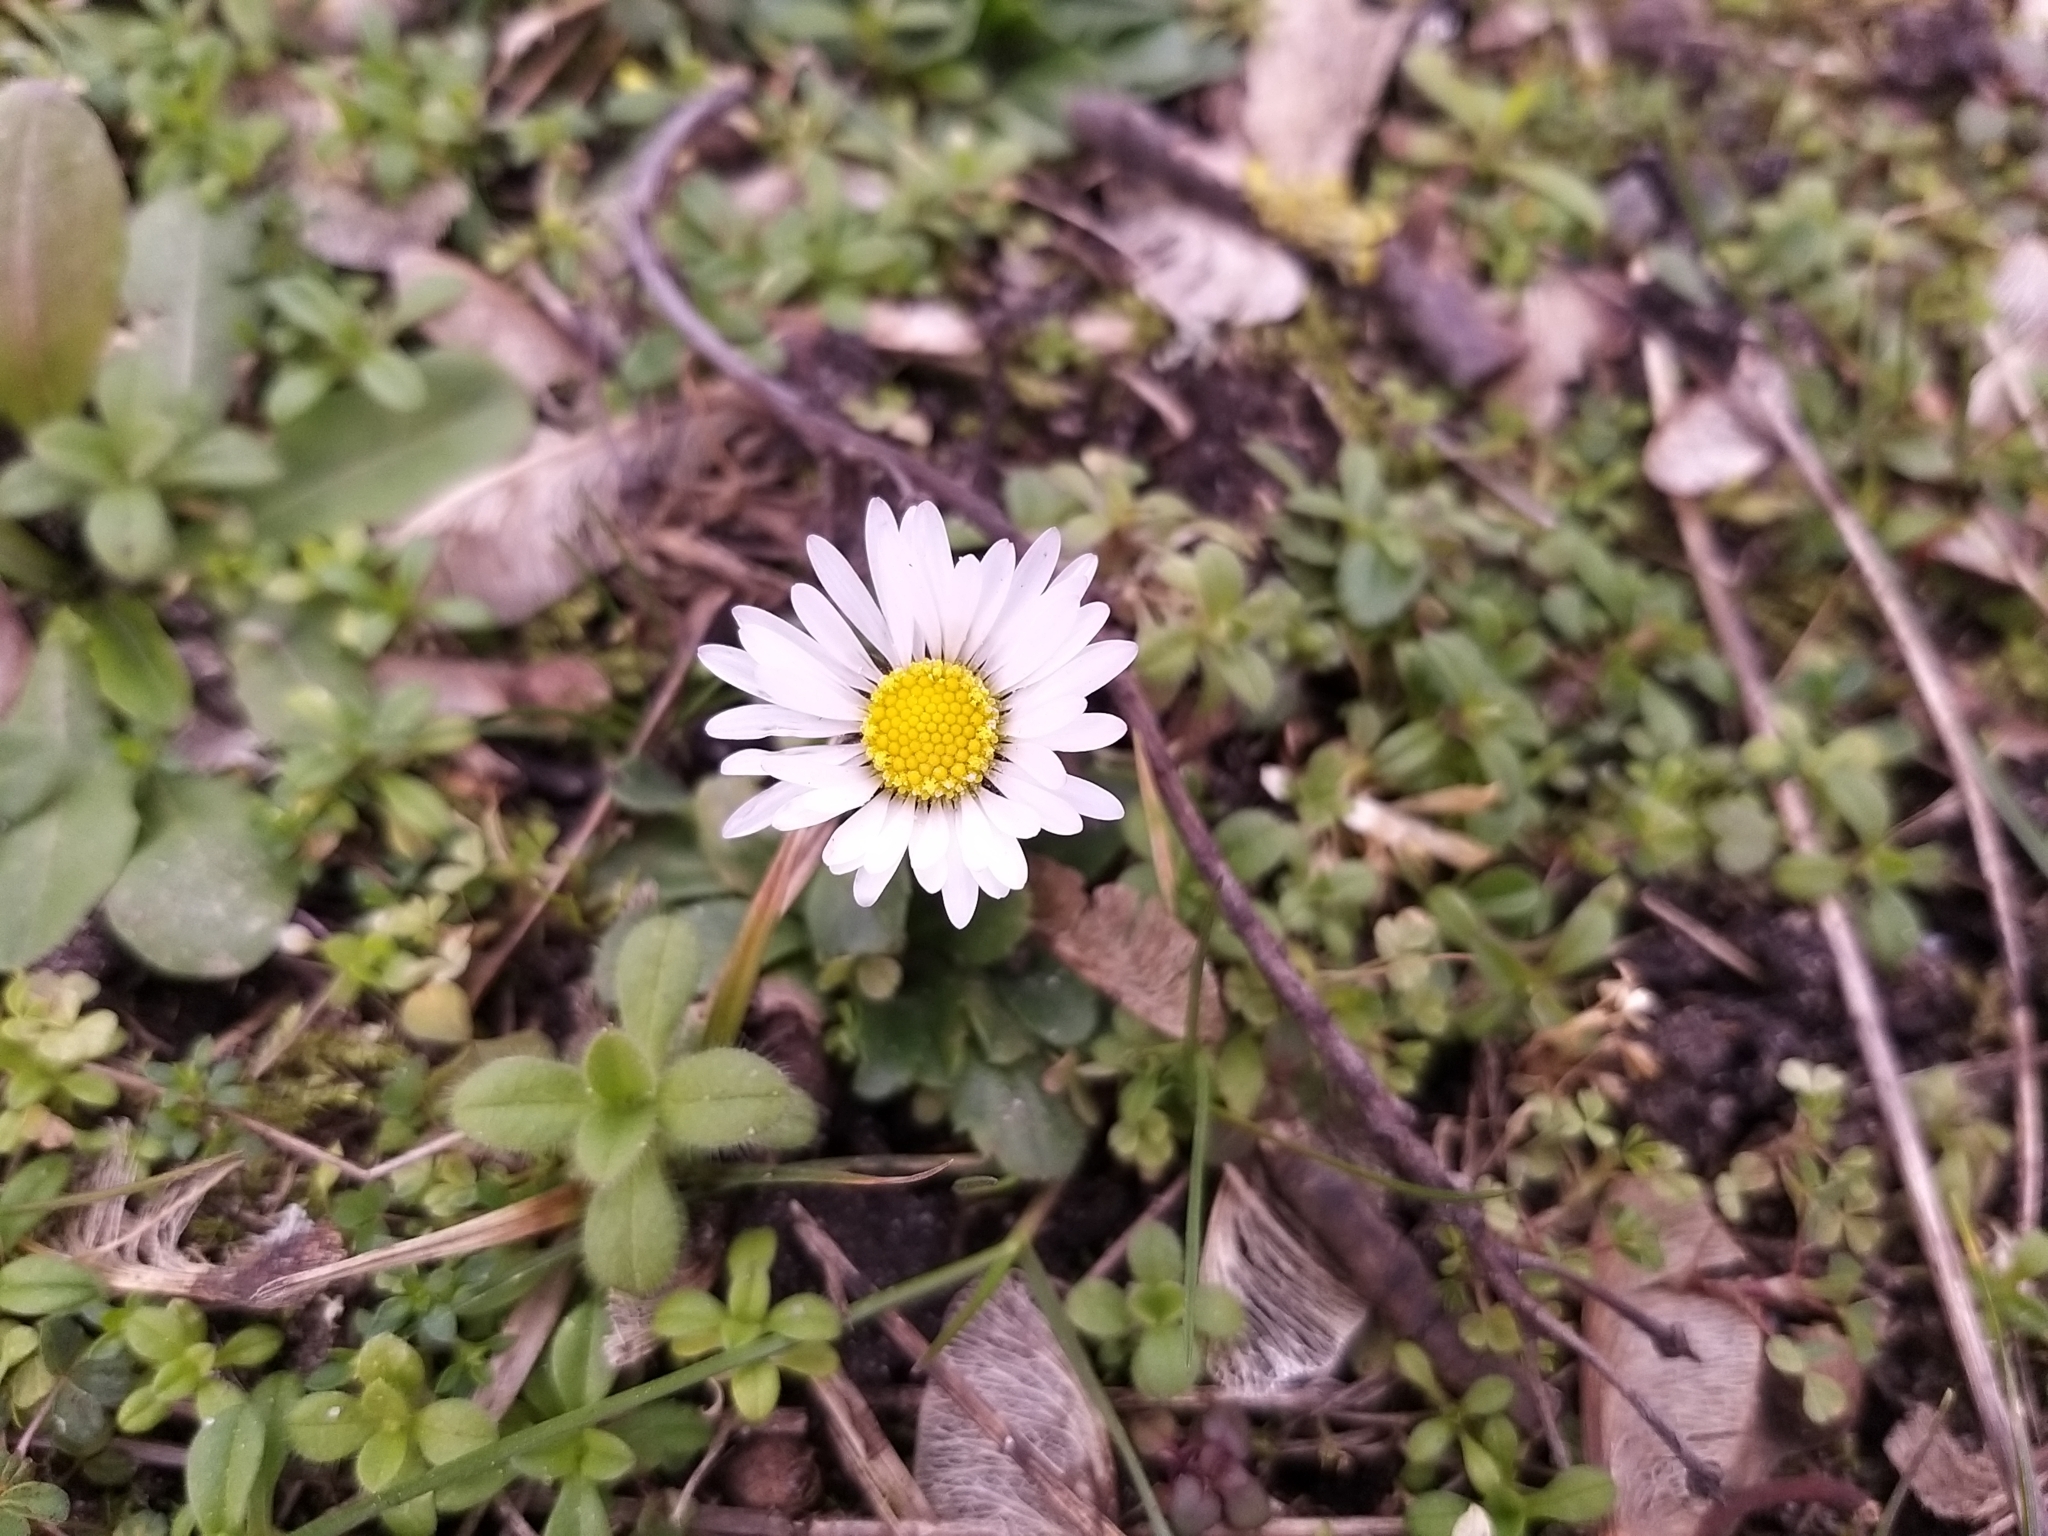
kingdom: Plantae
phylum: Tracheophyta
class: Magnoliopsida
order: Asterales
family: Asteraceae
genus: Bellis
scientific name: Bellis perennis
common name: Lawndaisy
